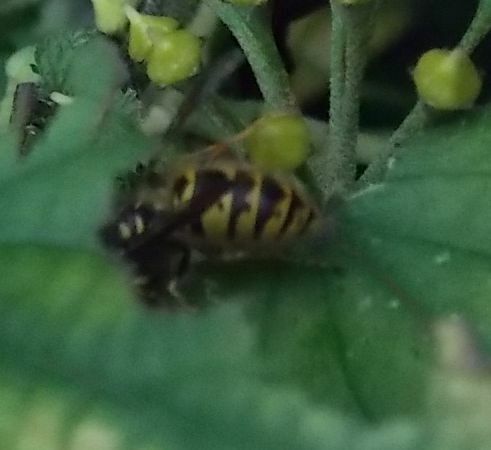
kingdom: Animalia
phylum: Arthropoda
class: Insecta
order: Hymenoptera
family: Vespidae
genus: Vespula
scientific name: Vespula vulgaris
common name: Common wasp
